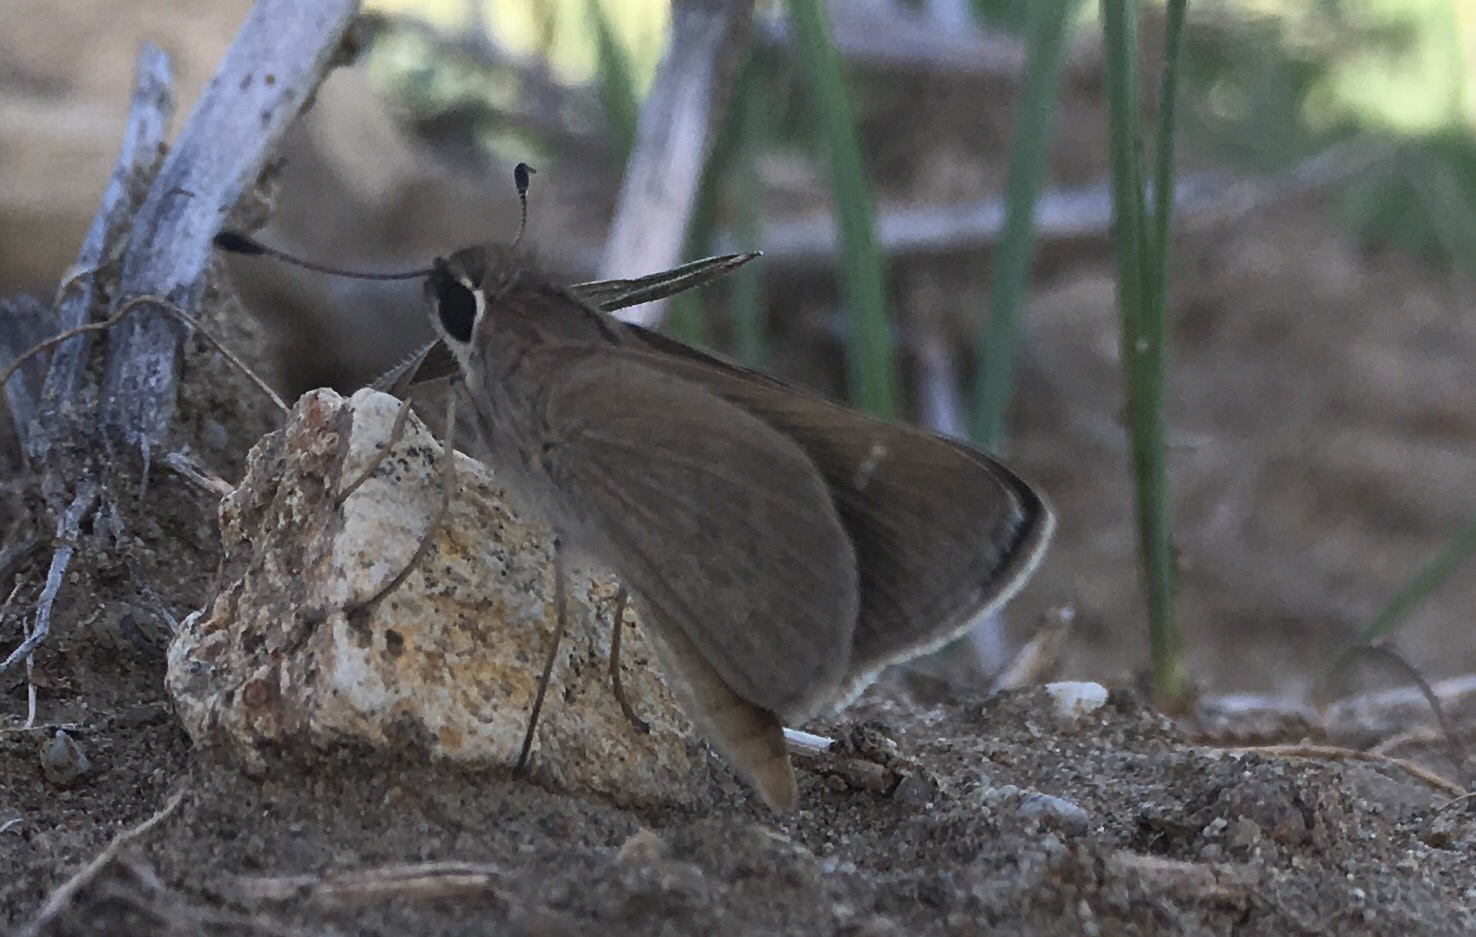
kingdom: Animalia
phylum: Arthropoda
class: Insecta
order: Lepidoptera
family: Hesperiidae
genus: Lerodea
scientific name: Lerodea eufala
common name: Eufala skipper
